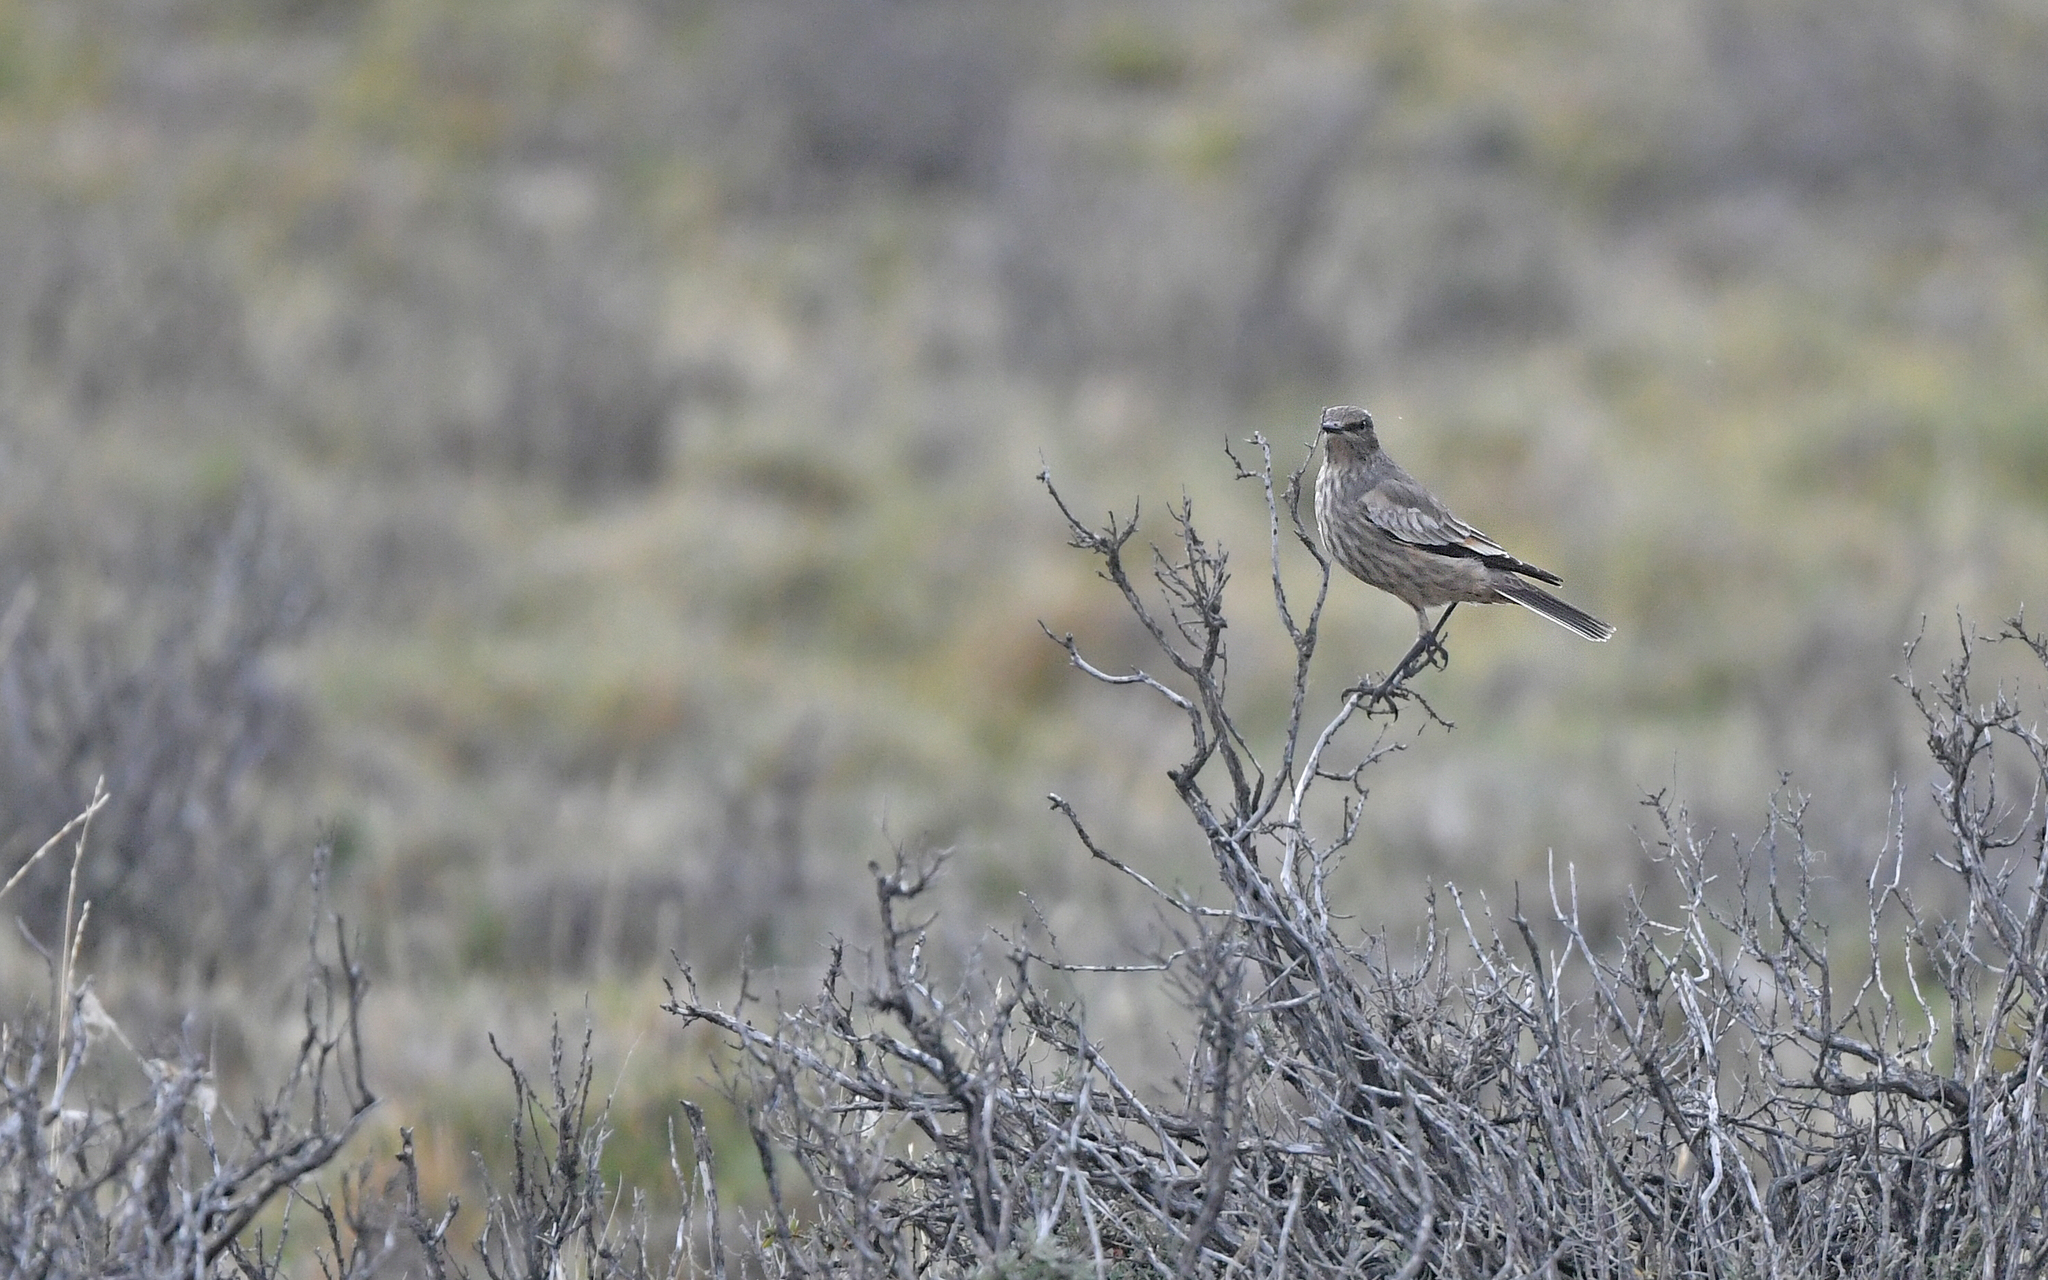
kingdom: Animalia
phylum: Chordata
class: Aves
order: Passeriformes
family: Tyrannidae
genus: Neoxolmis
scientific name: Neoxolmis rufiventris
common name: Chocolate-vented tyrant
